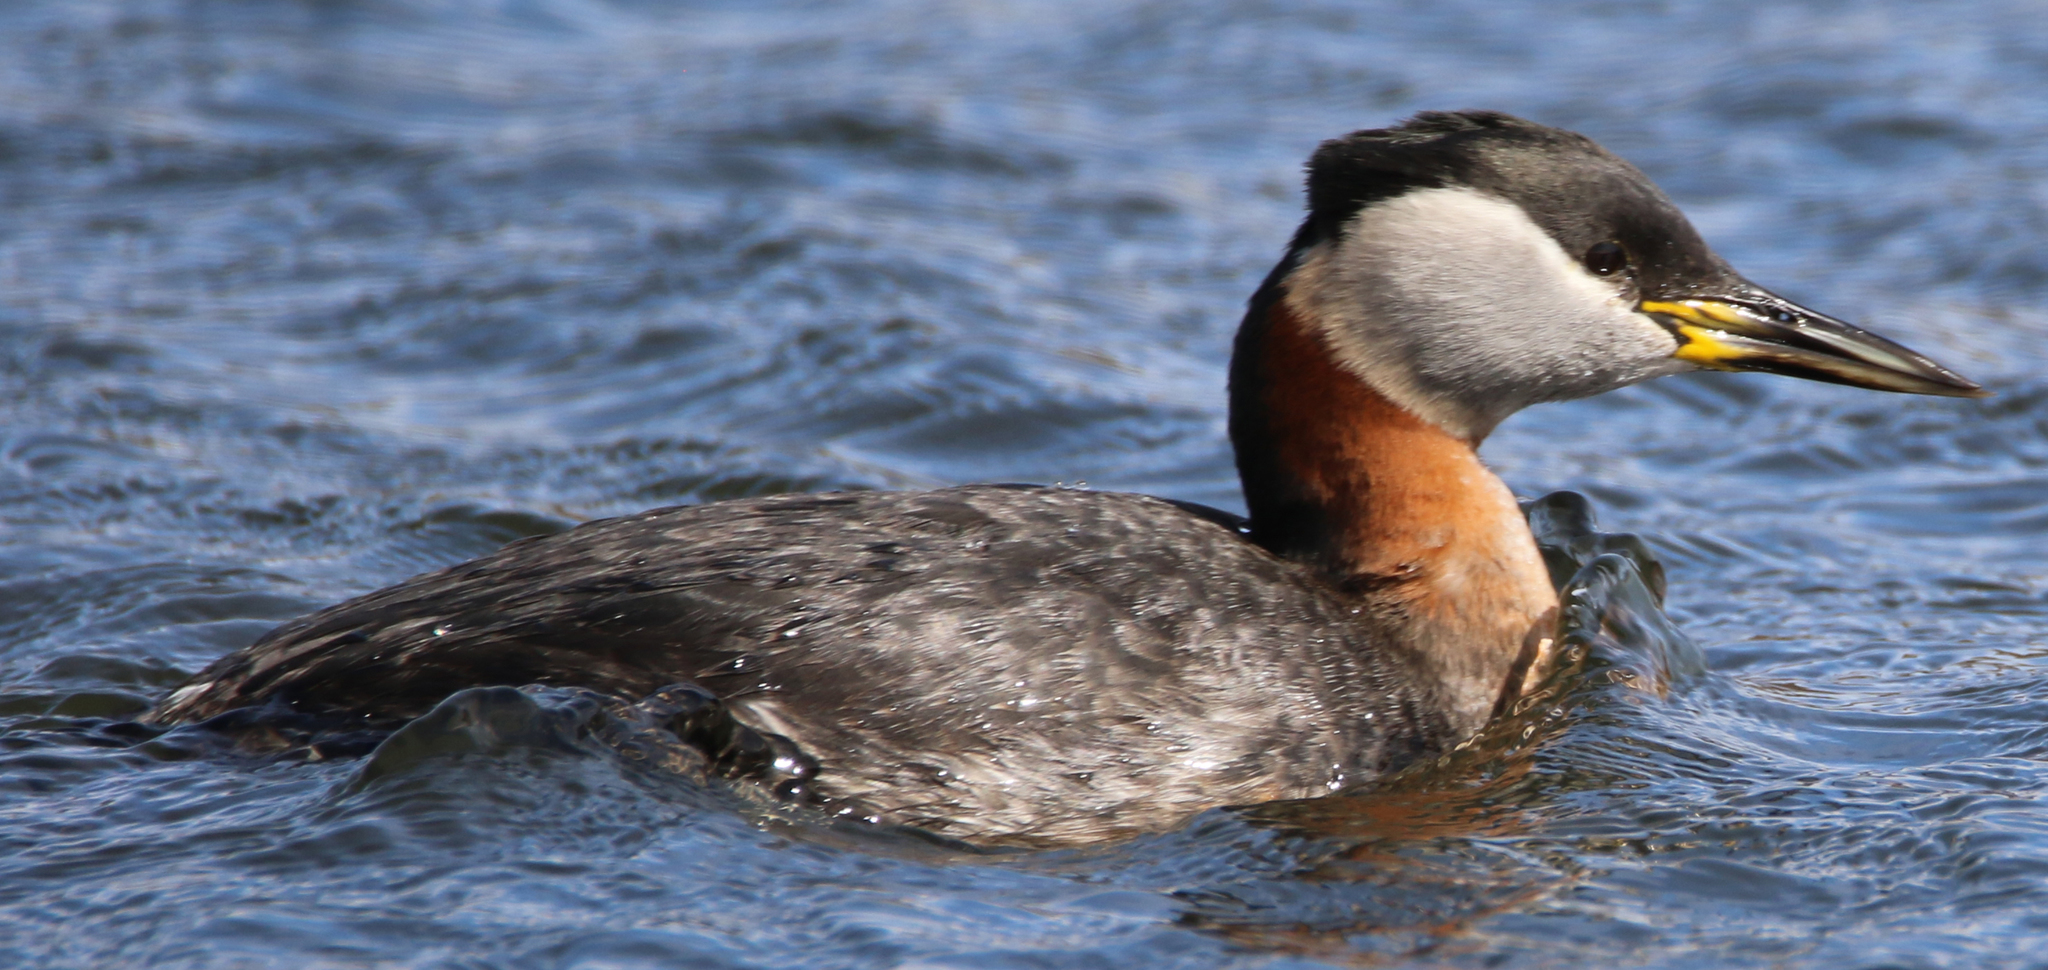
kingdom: Animalia
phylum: Chordata
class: Aves
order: Podicipediformes
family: Podicipedidae
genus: Podiceps
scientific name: Podiceps grisegena
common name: Red-necked grebe
